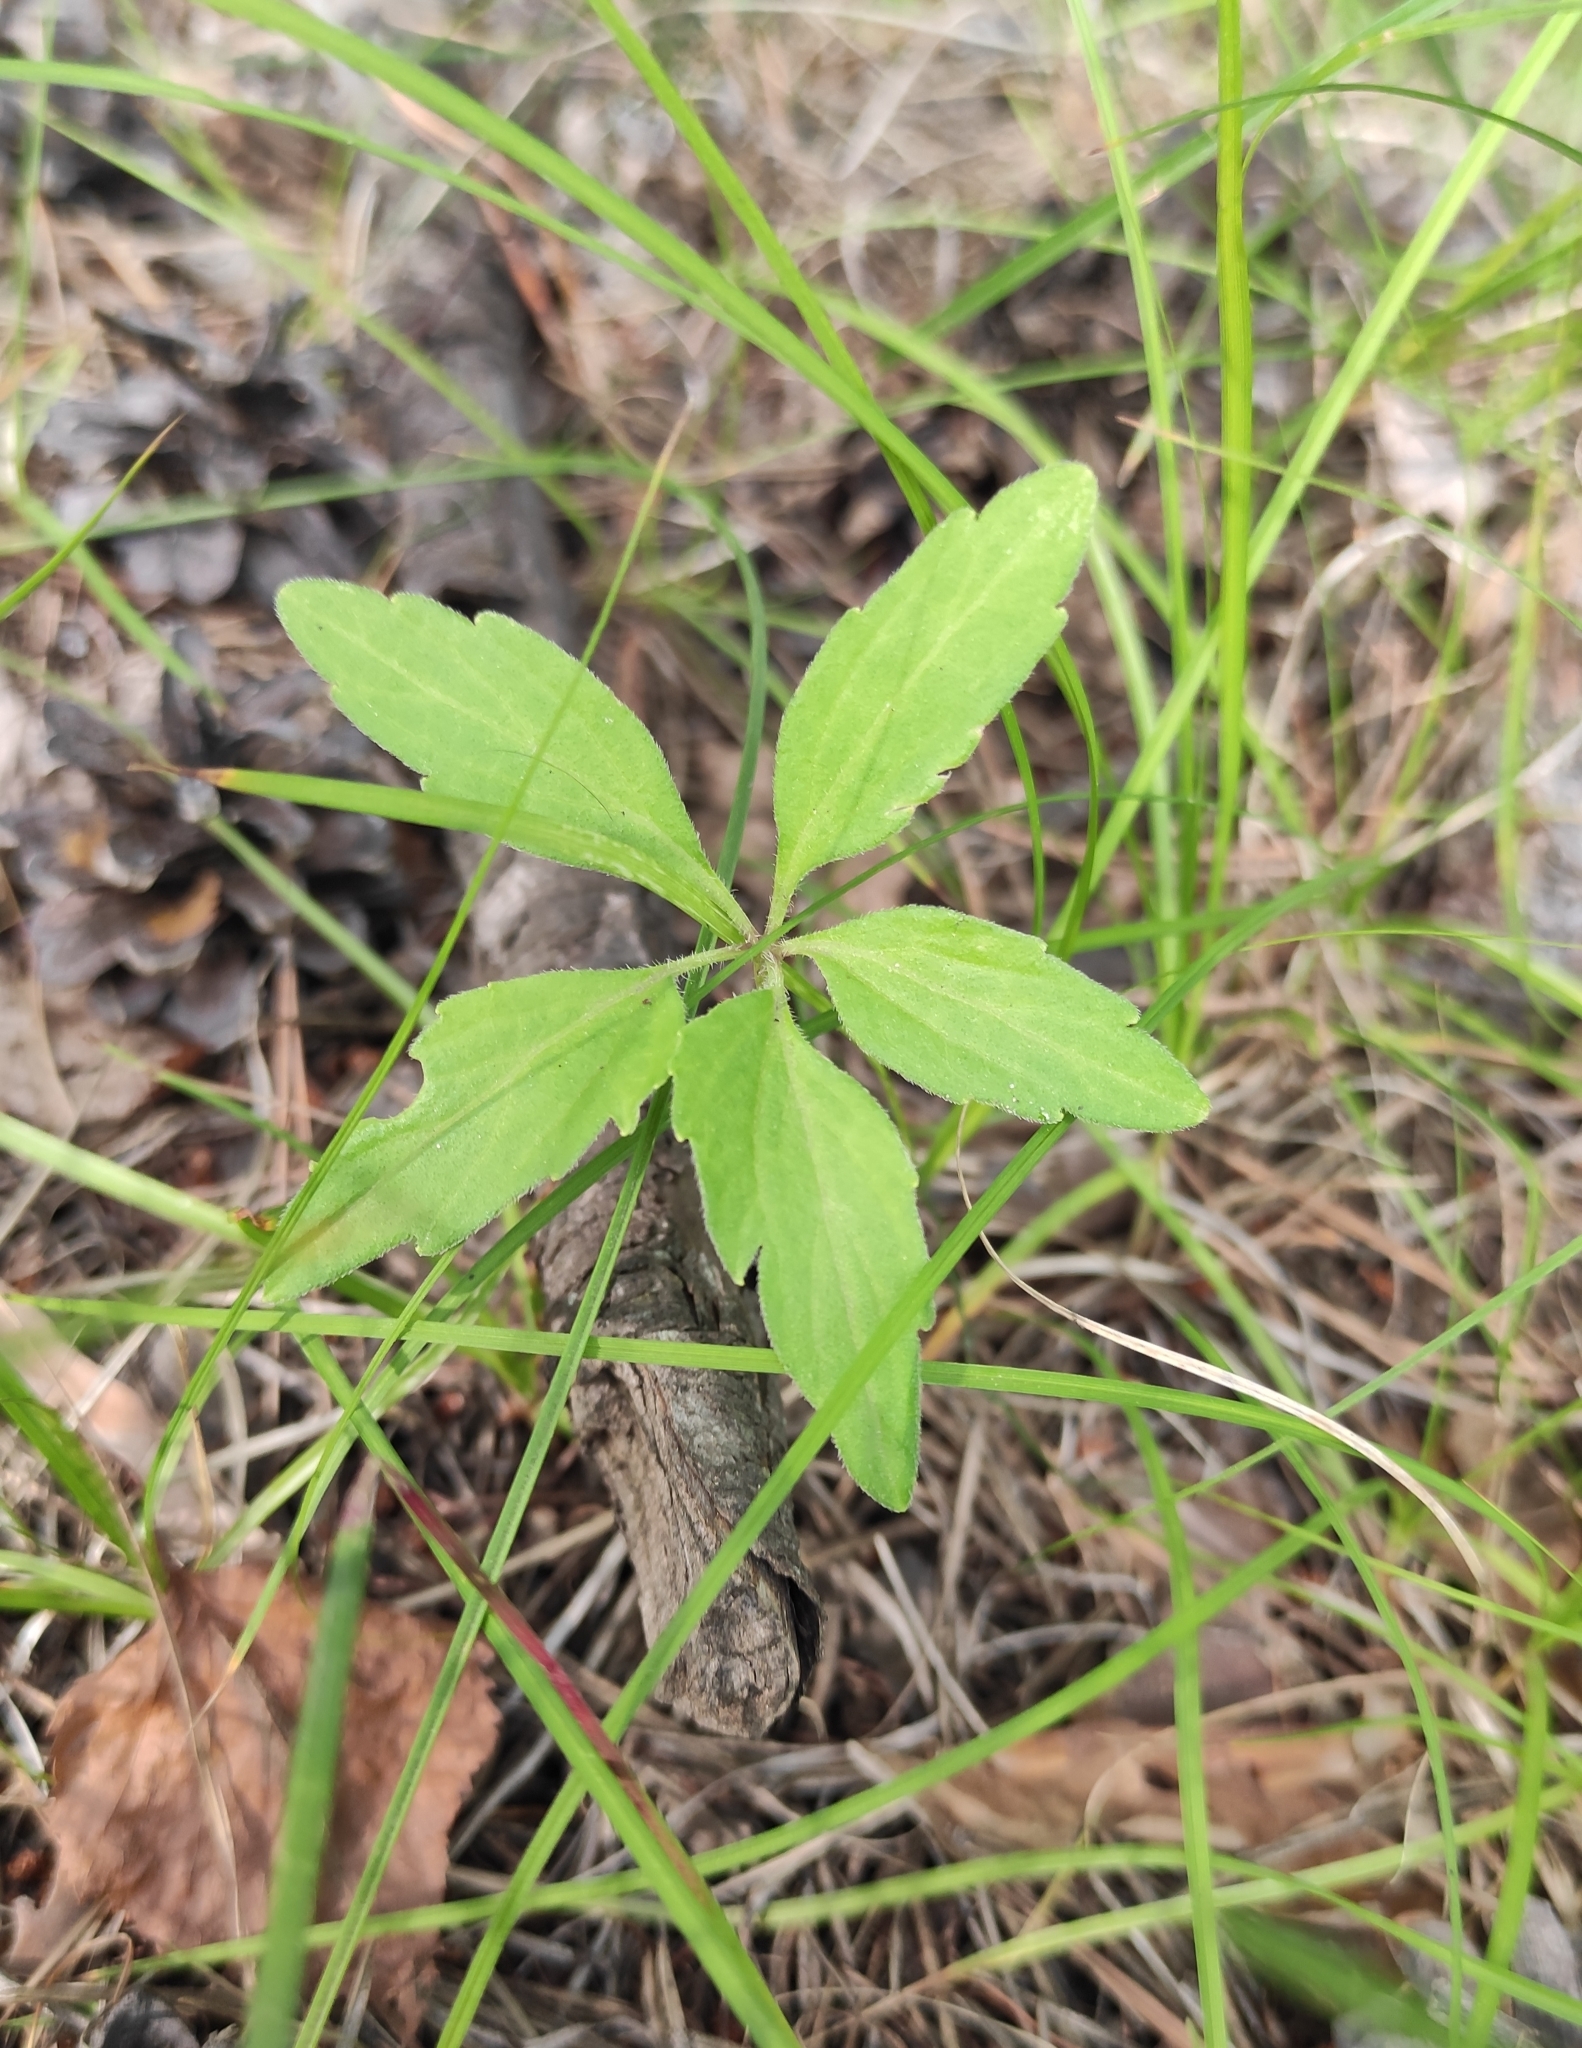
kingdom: Plantae
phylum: Tracheophyta
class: Magnoliopsida
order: Malpighiales
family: Violaceae
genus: Viola
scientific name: Viola dactyloides
